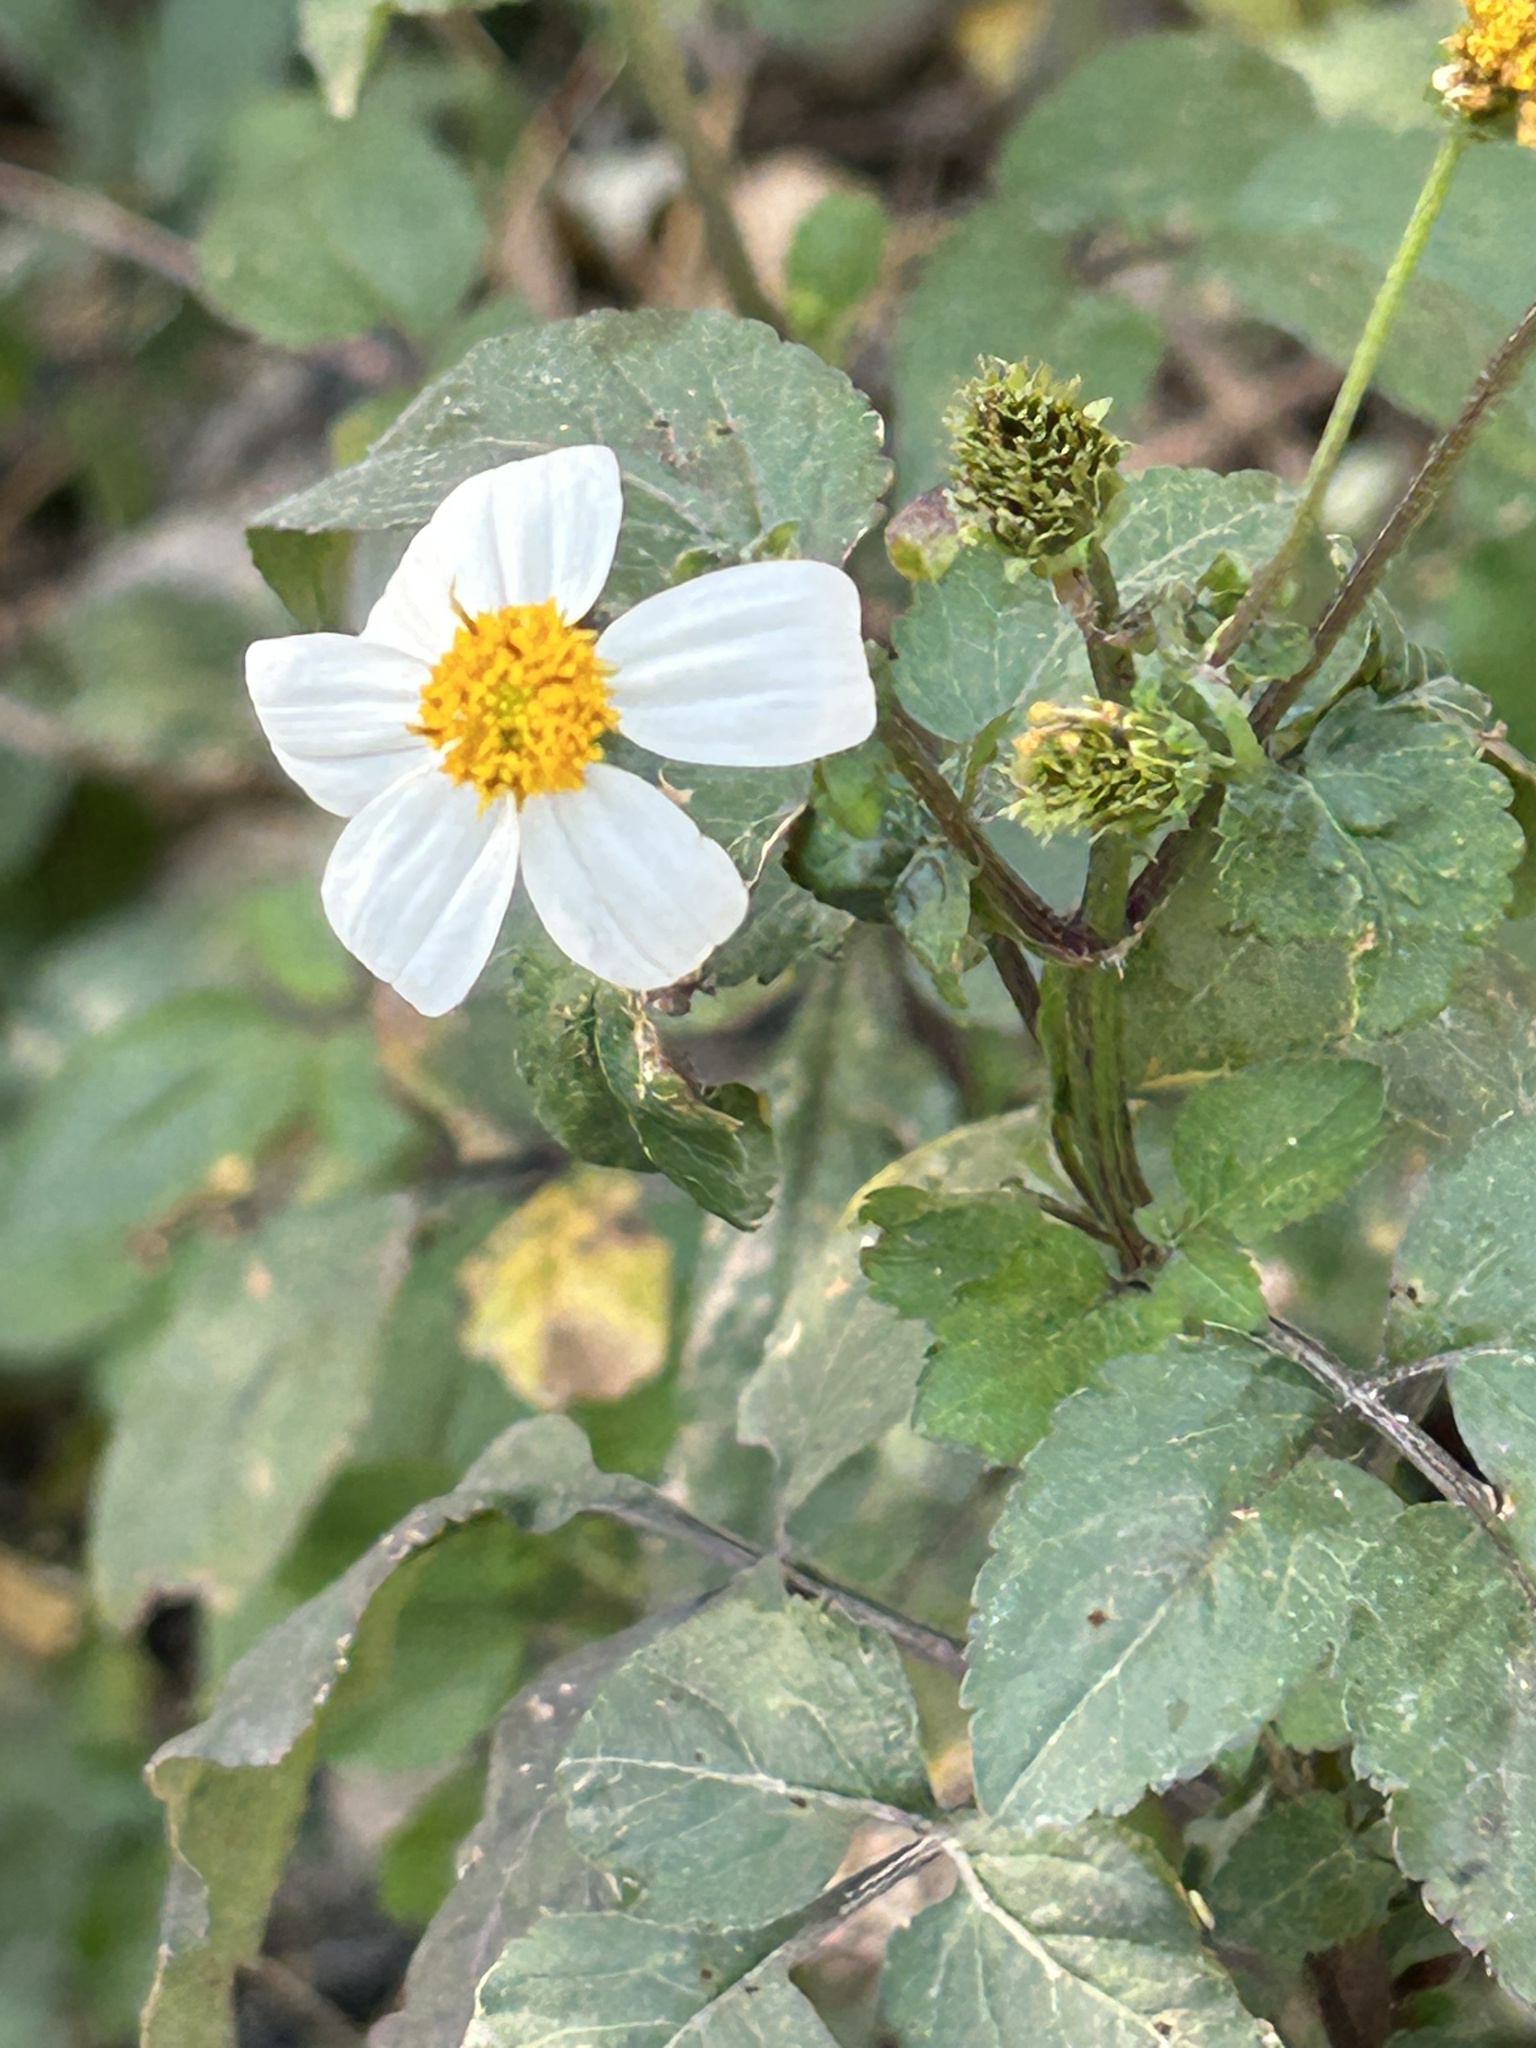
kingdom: Plantae
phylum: Tracheophyta
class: Magnoliopsida
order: Asterales
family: Asteraceae
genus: Bidens
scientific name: Bidens alba
